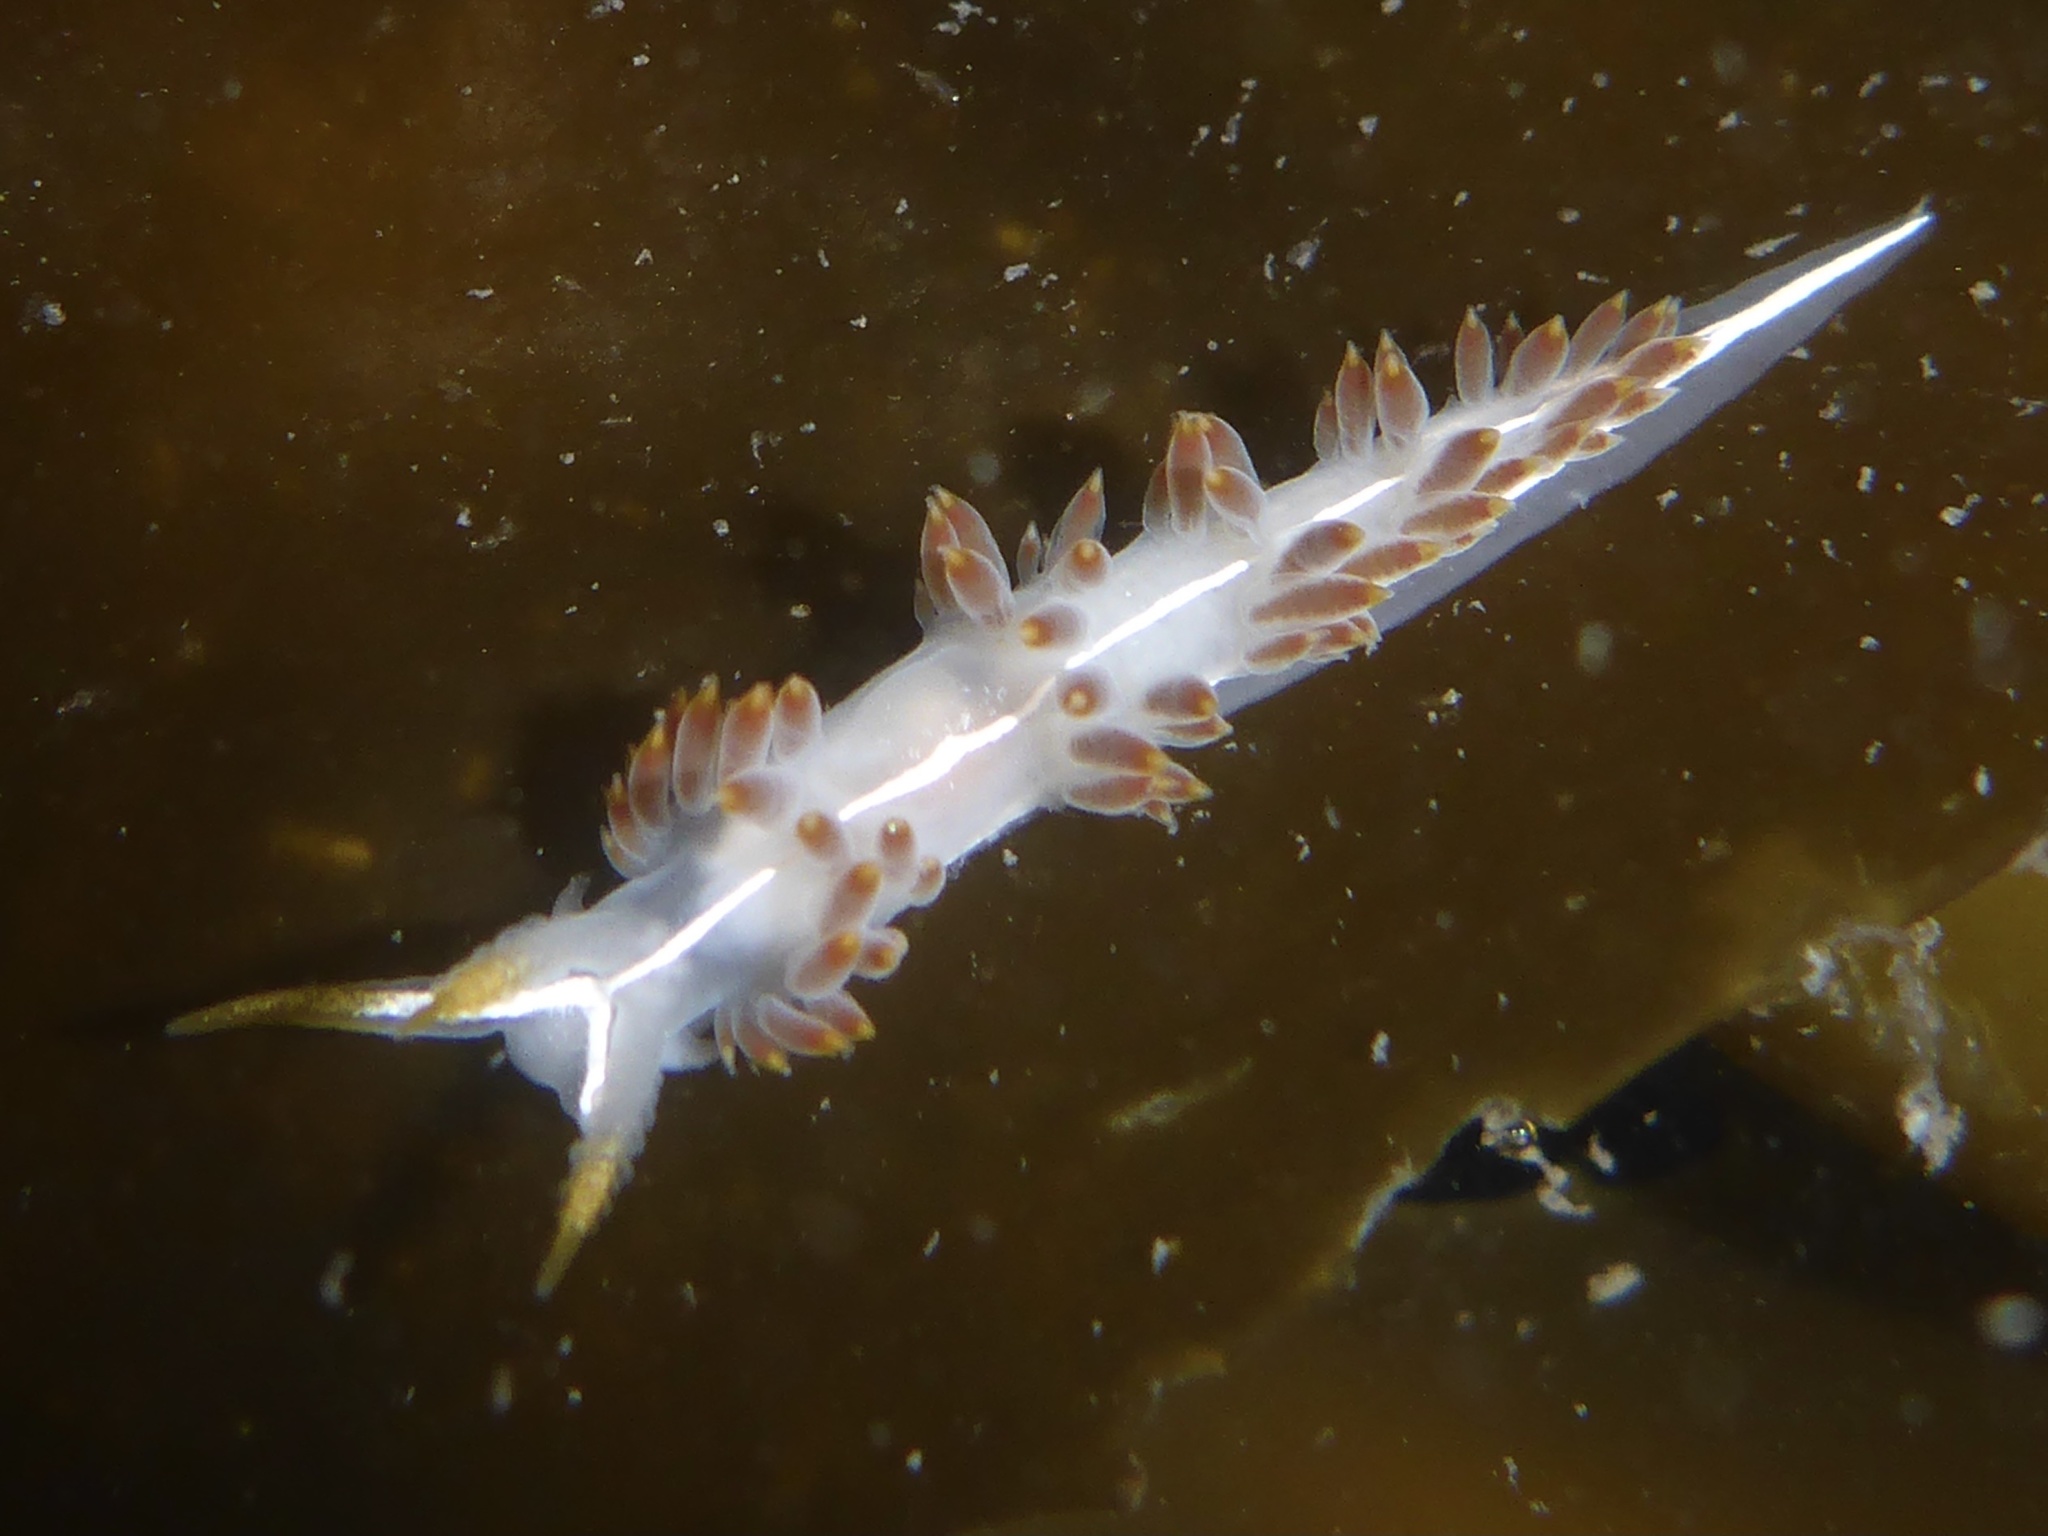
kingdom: Animalia
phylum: Mollusca
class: Gastropoda
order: Nudibranchia
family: Coryphellidae
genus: Coryphella
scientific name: Coryphella trilineata
